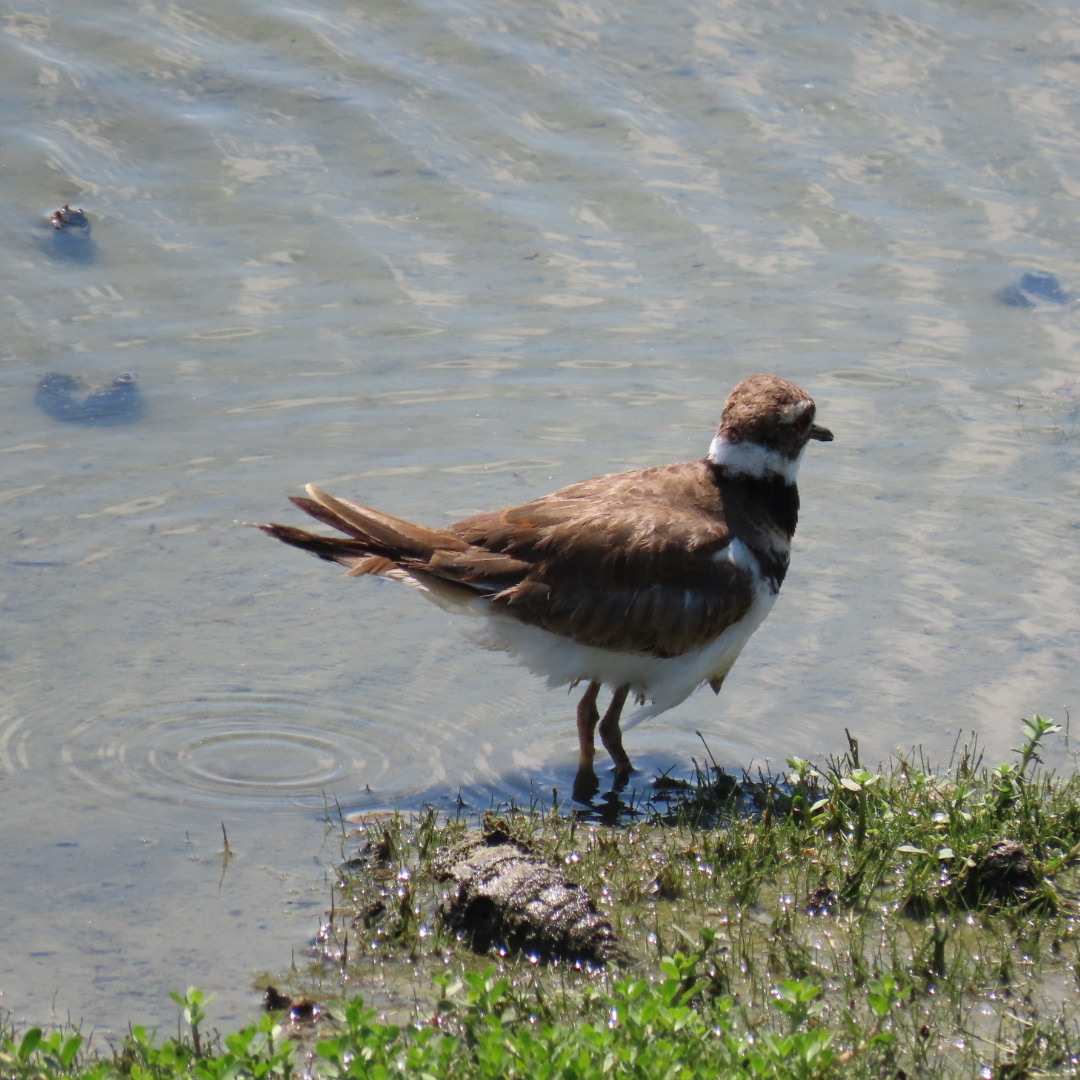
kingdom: Animalia
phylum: Chordata
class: Aves
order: Charadriiformes
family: Charadriidae
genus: Charadrius
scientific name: Charadrius vociferus
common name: Killdeer
